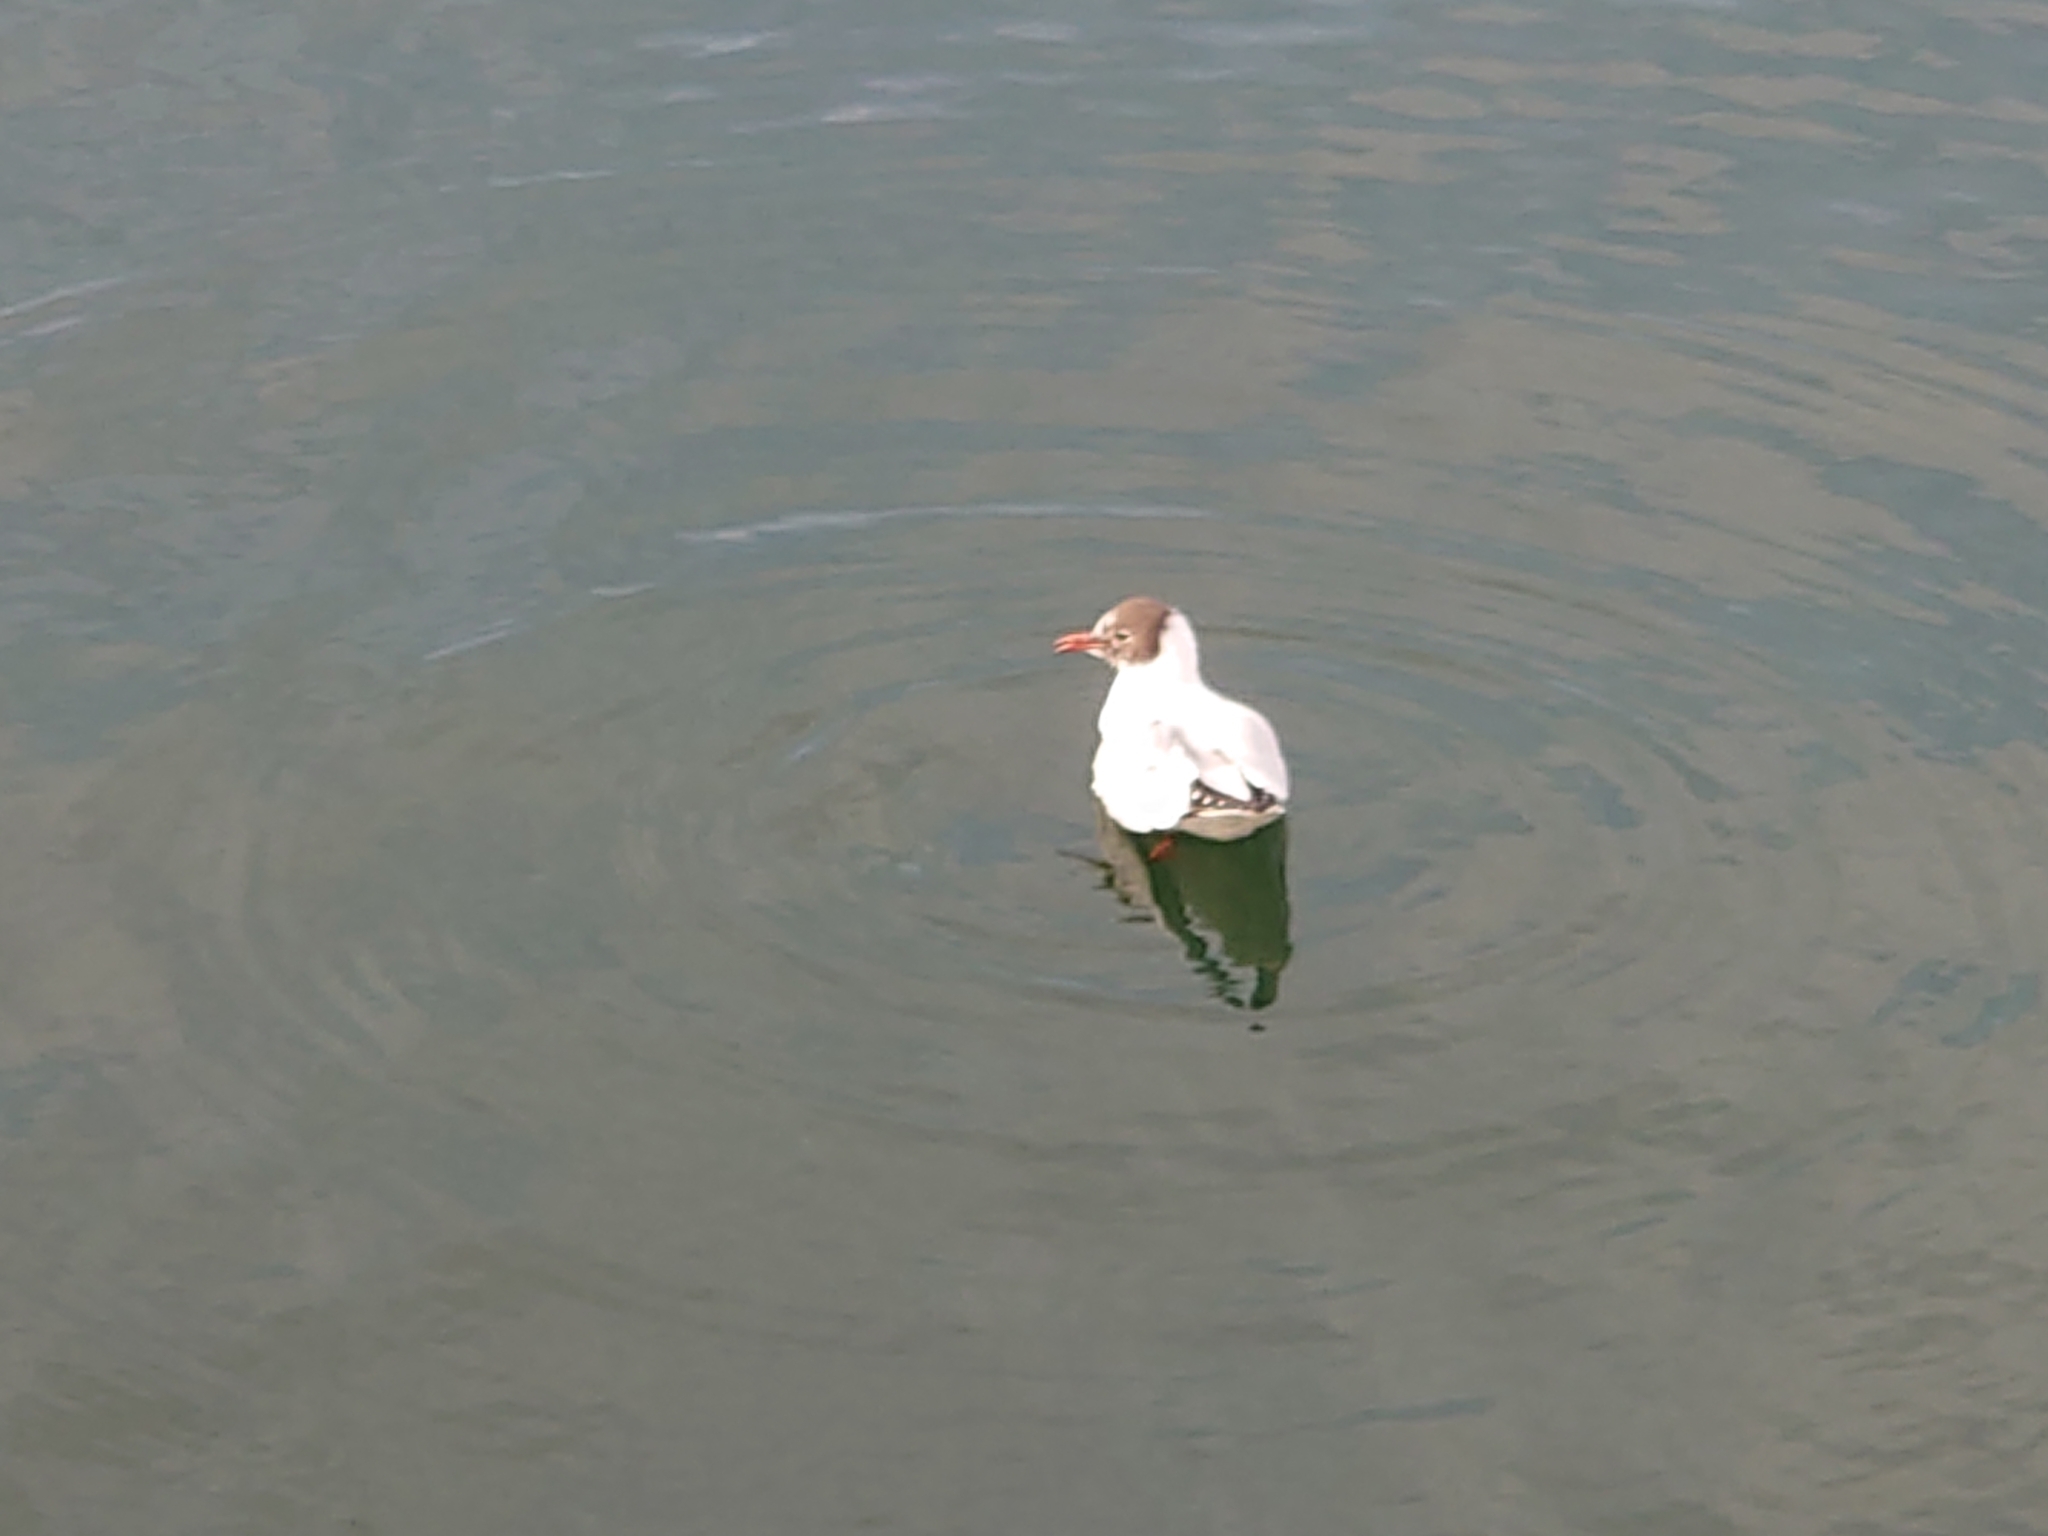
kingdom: Animalia
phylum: Chordata
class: Aves
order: Charadriiformes
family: Laridae
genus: Chroicocephalus
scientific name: Chroicocephalus ridibundus
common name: Black-headed gull
